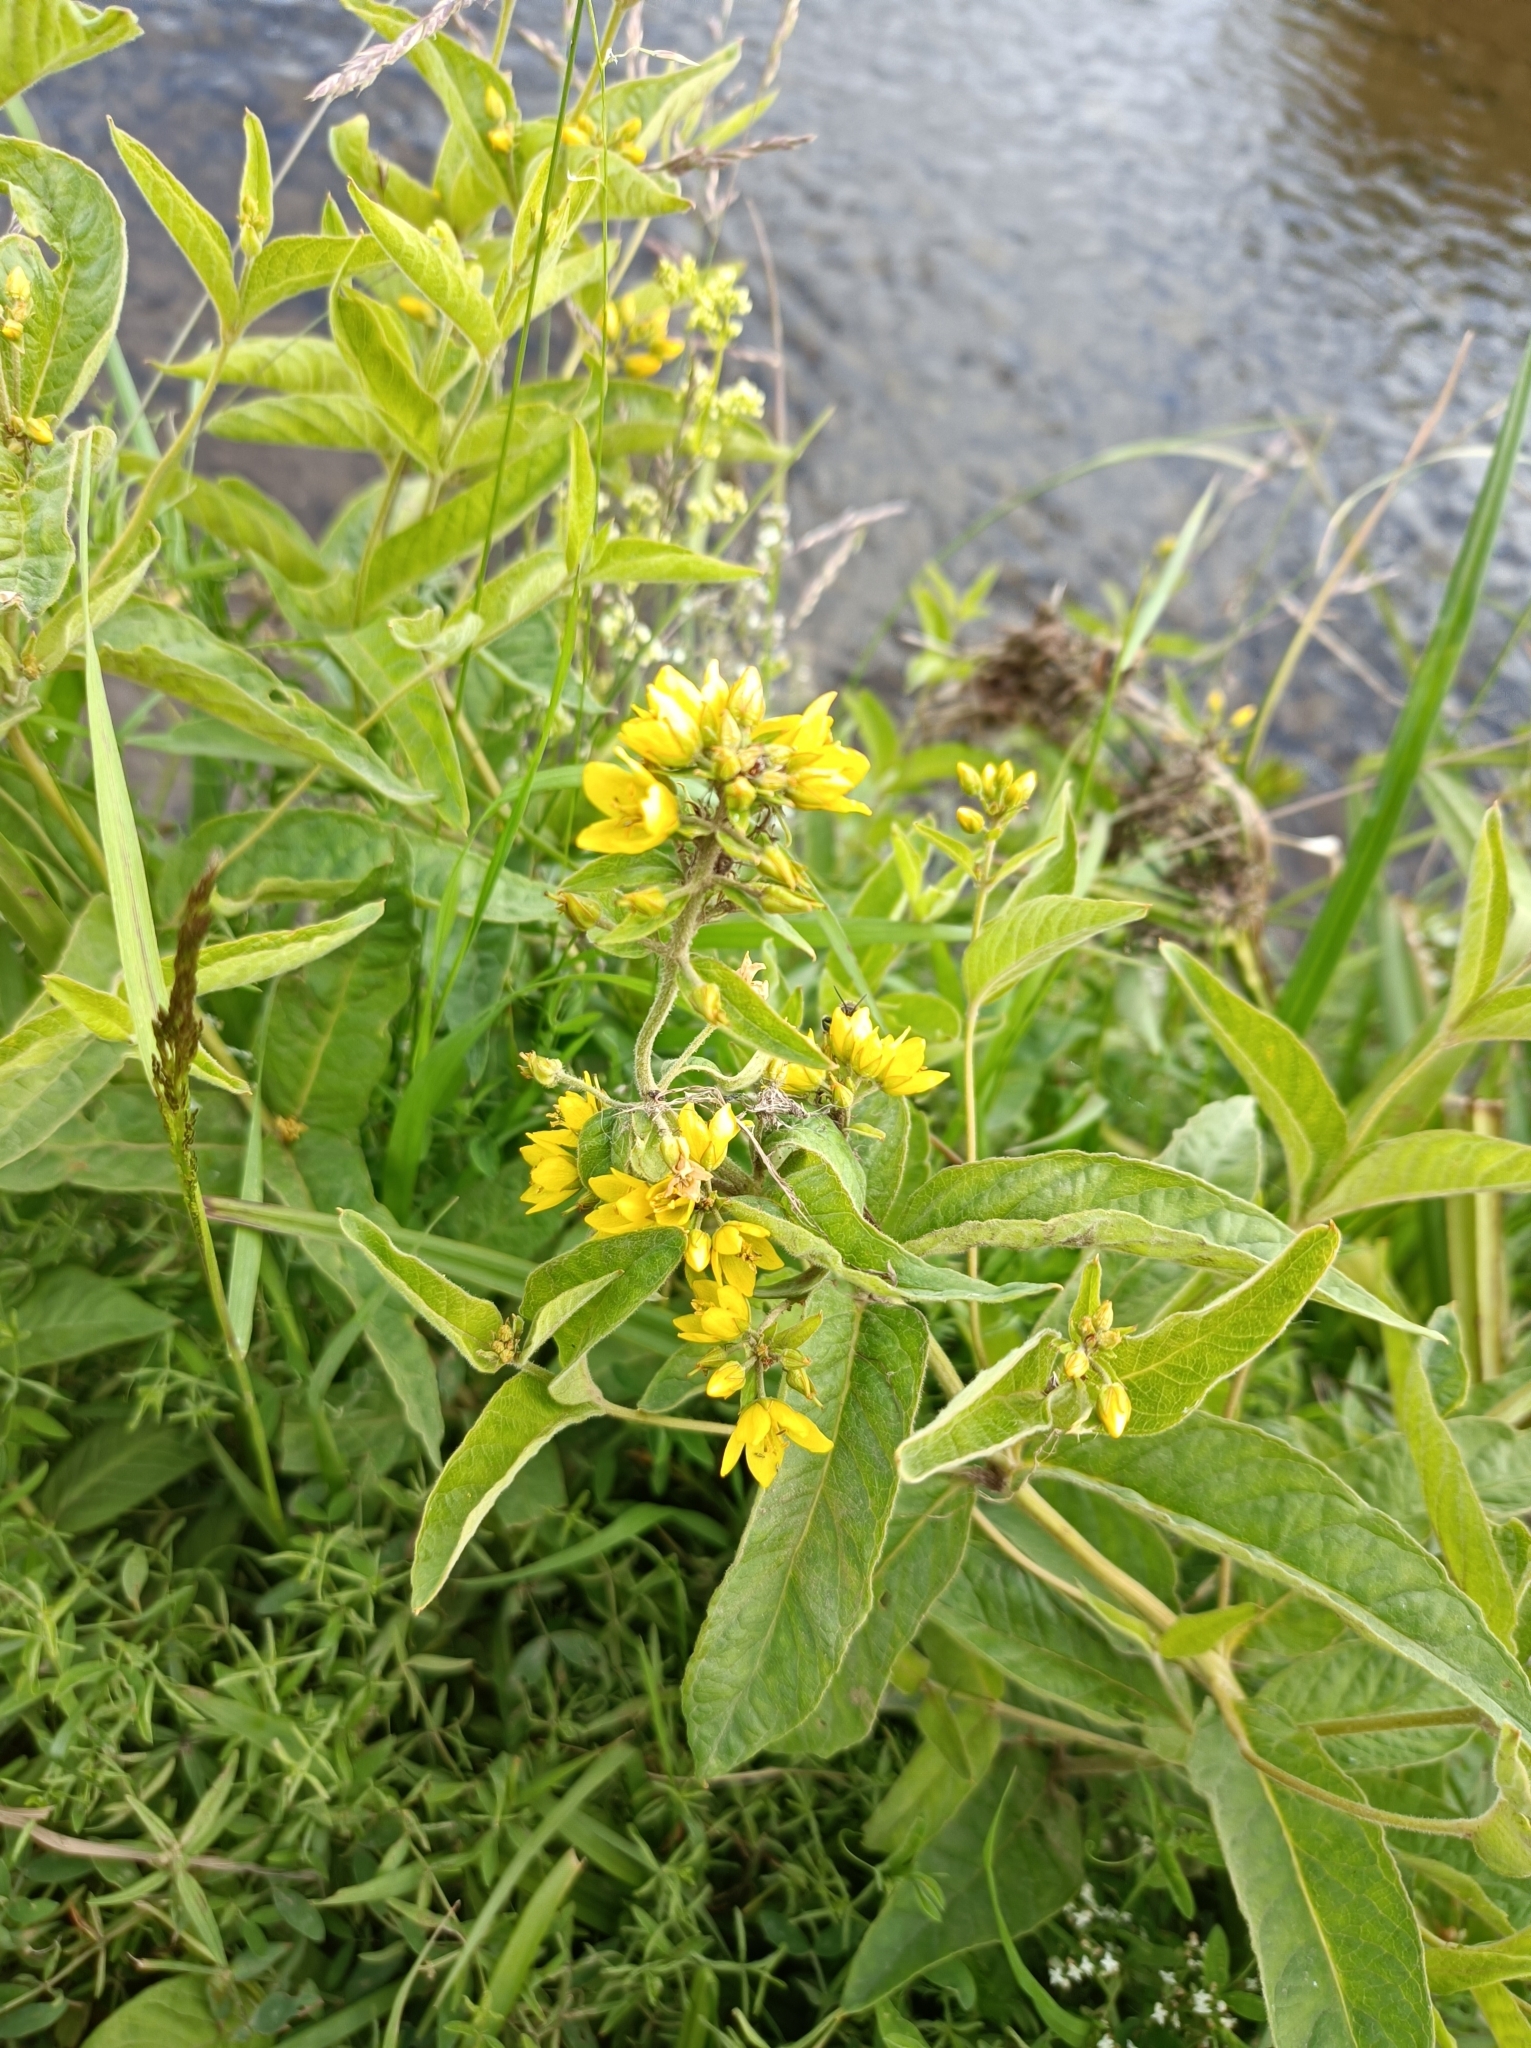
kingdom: Plantae
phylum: Tracheophyta
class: Magnoliopsida
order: Ericales
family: Primulaceae
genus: Lysimachia
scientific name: Lysimachia vulgaris
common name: Yellow loosestrife
